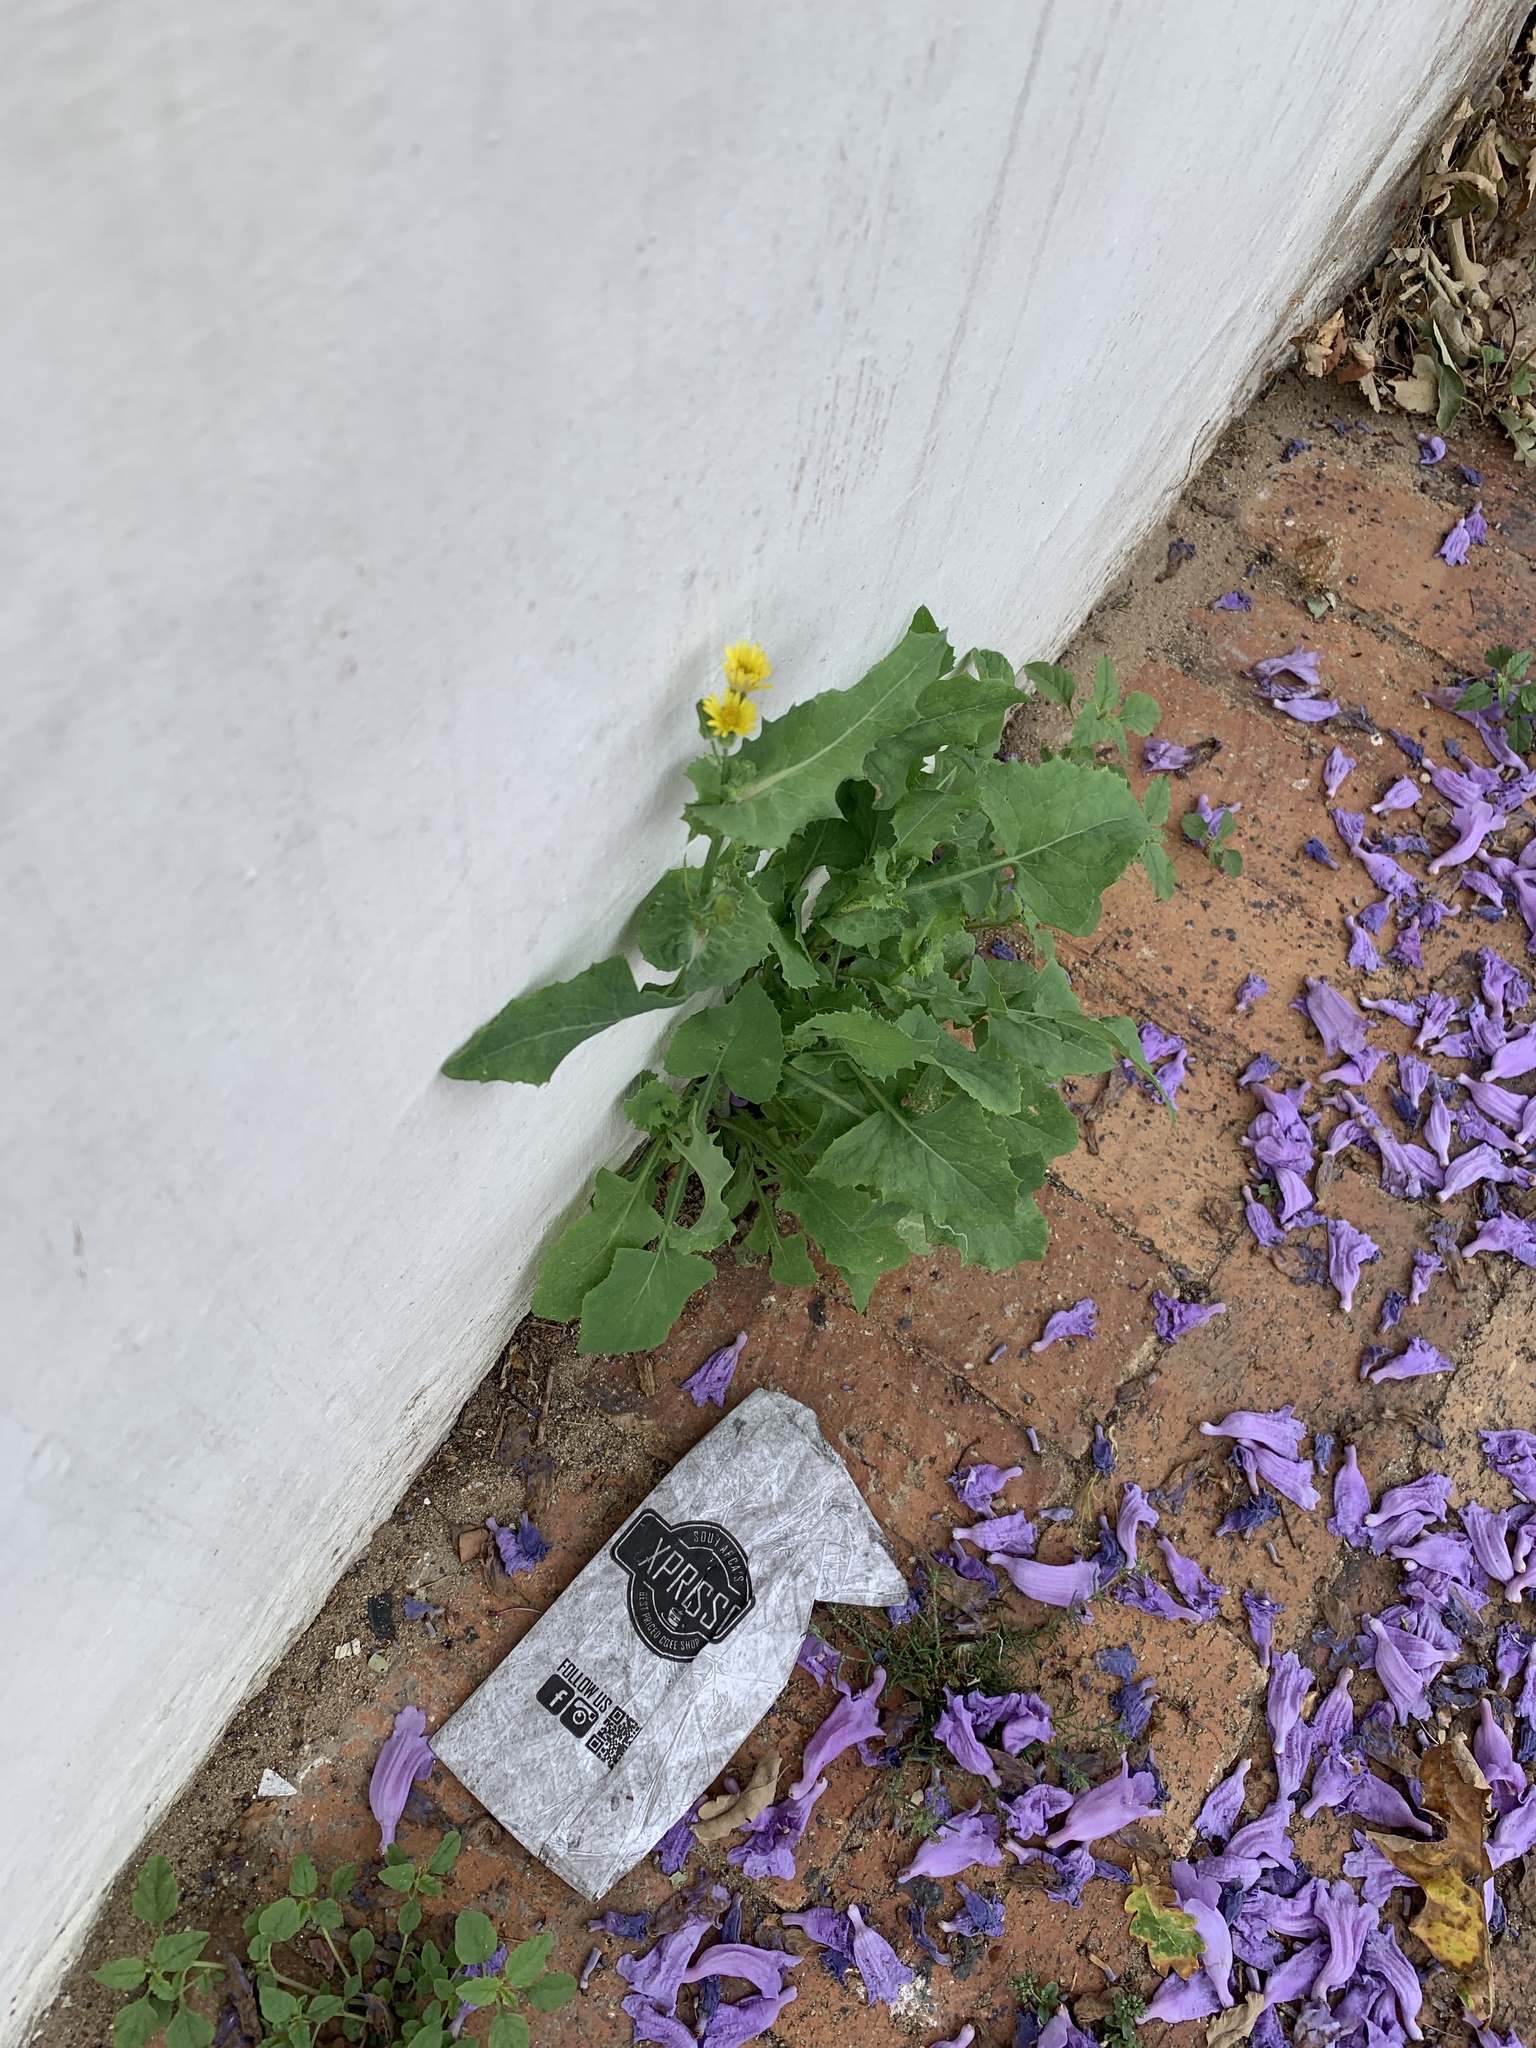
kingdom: Plantae
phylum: Tracheophyta
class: Magnoliopsida
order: Asterales
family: Asteraceae
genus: Sonchus
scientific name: Sonchus oleraceus
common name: Common sowthistle
